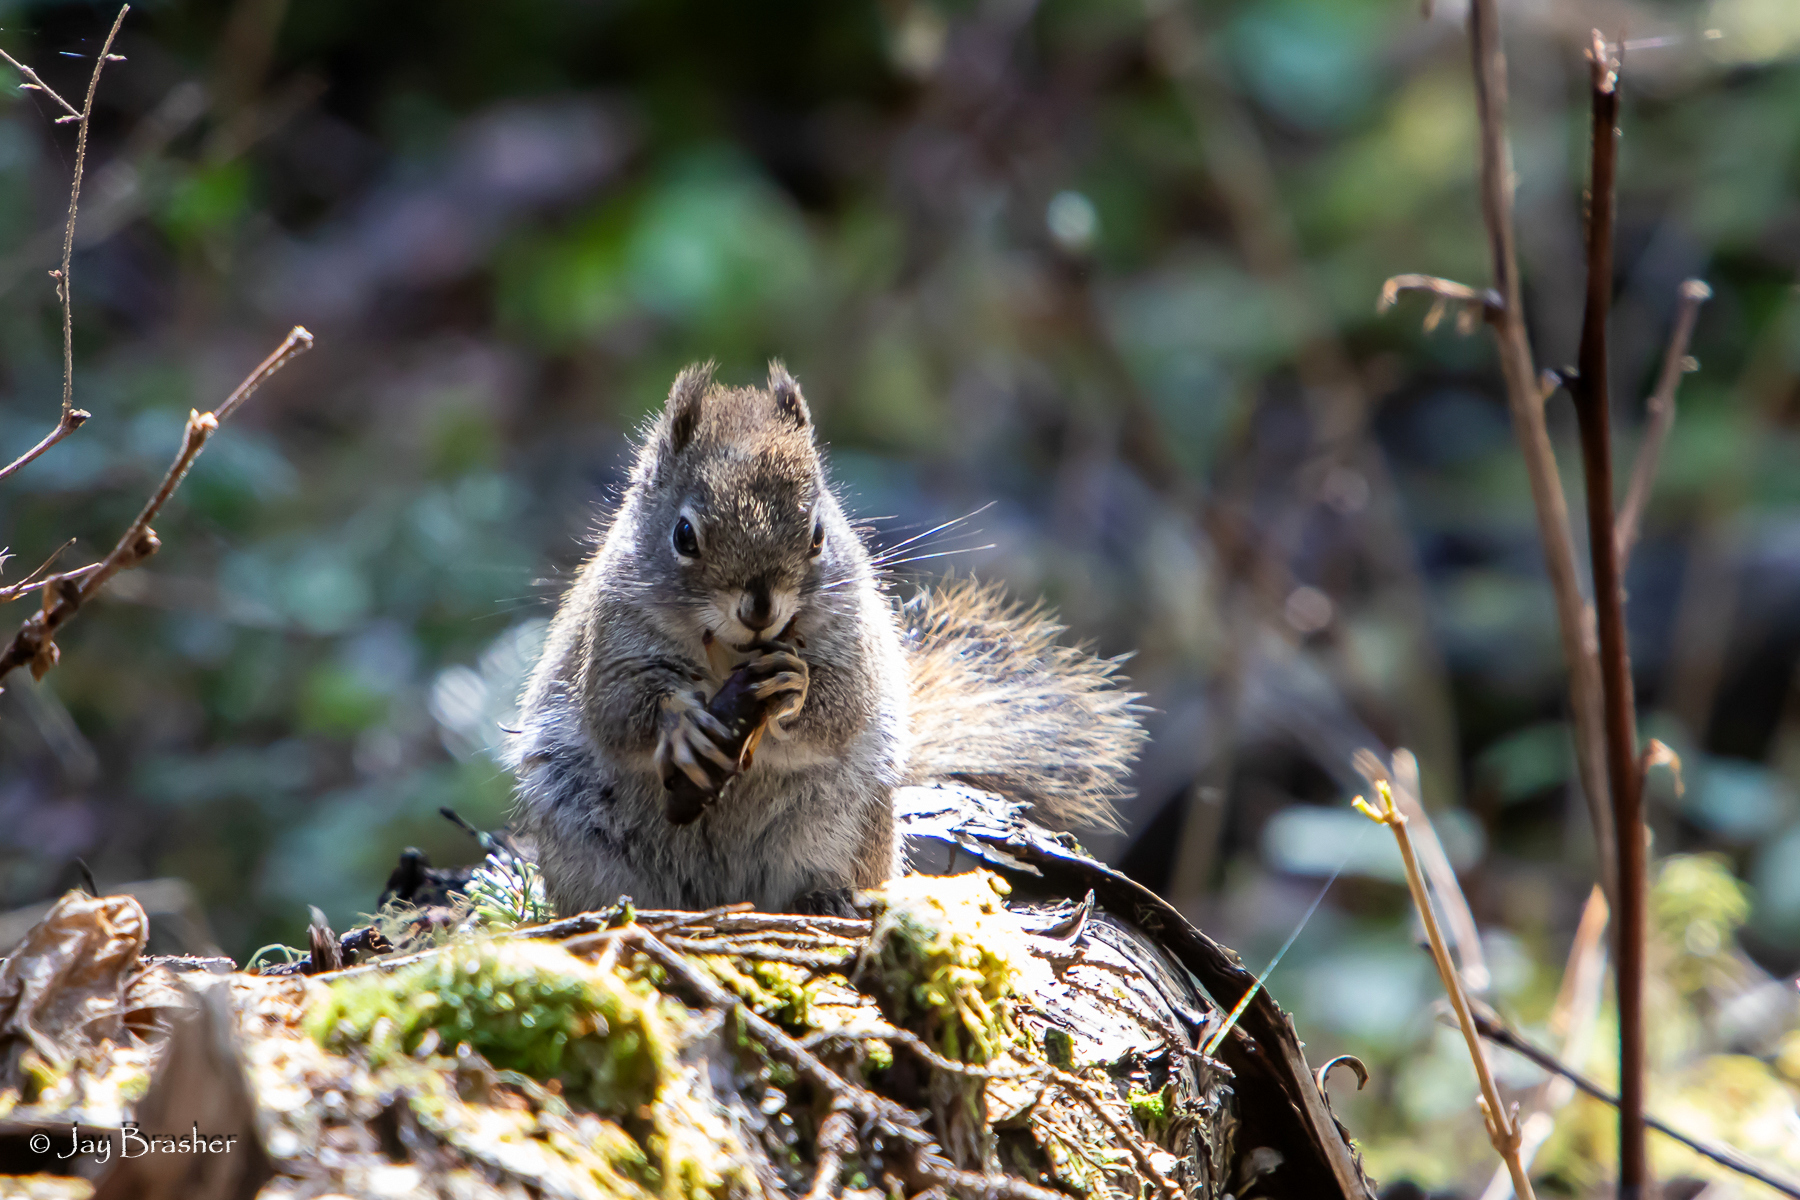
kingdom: Animalia
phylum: Chordata
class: Mammalia
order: Rodentia
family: Sciuridae
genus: Tamiasciurus
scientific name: Tamiasciurus hudsonicus
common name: Red squirrel
